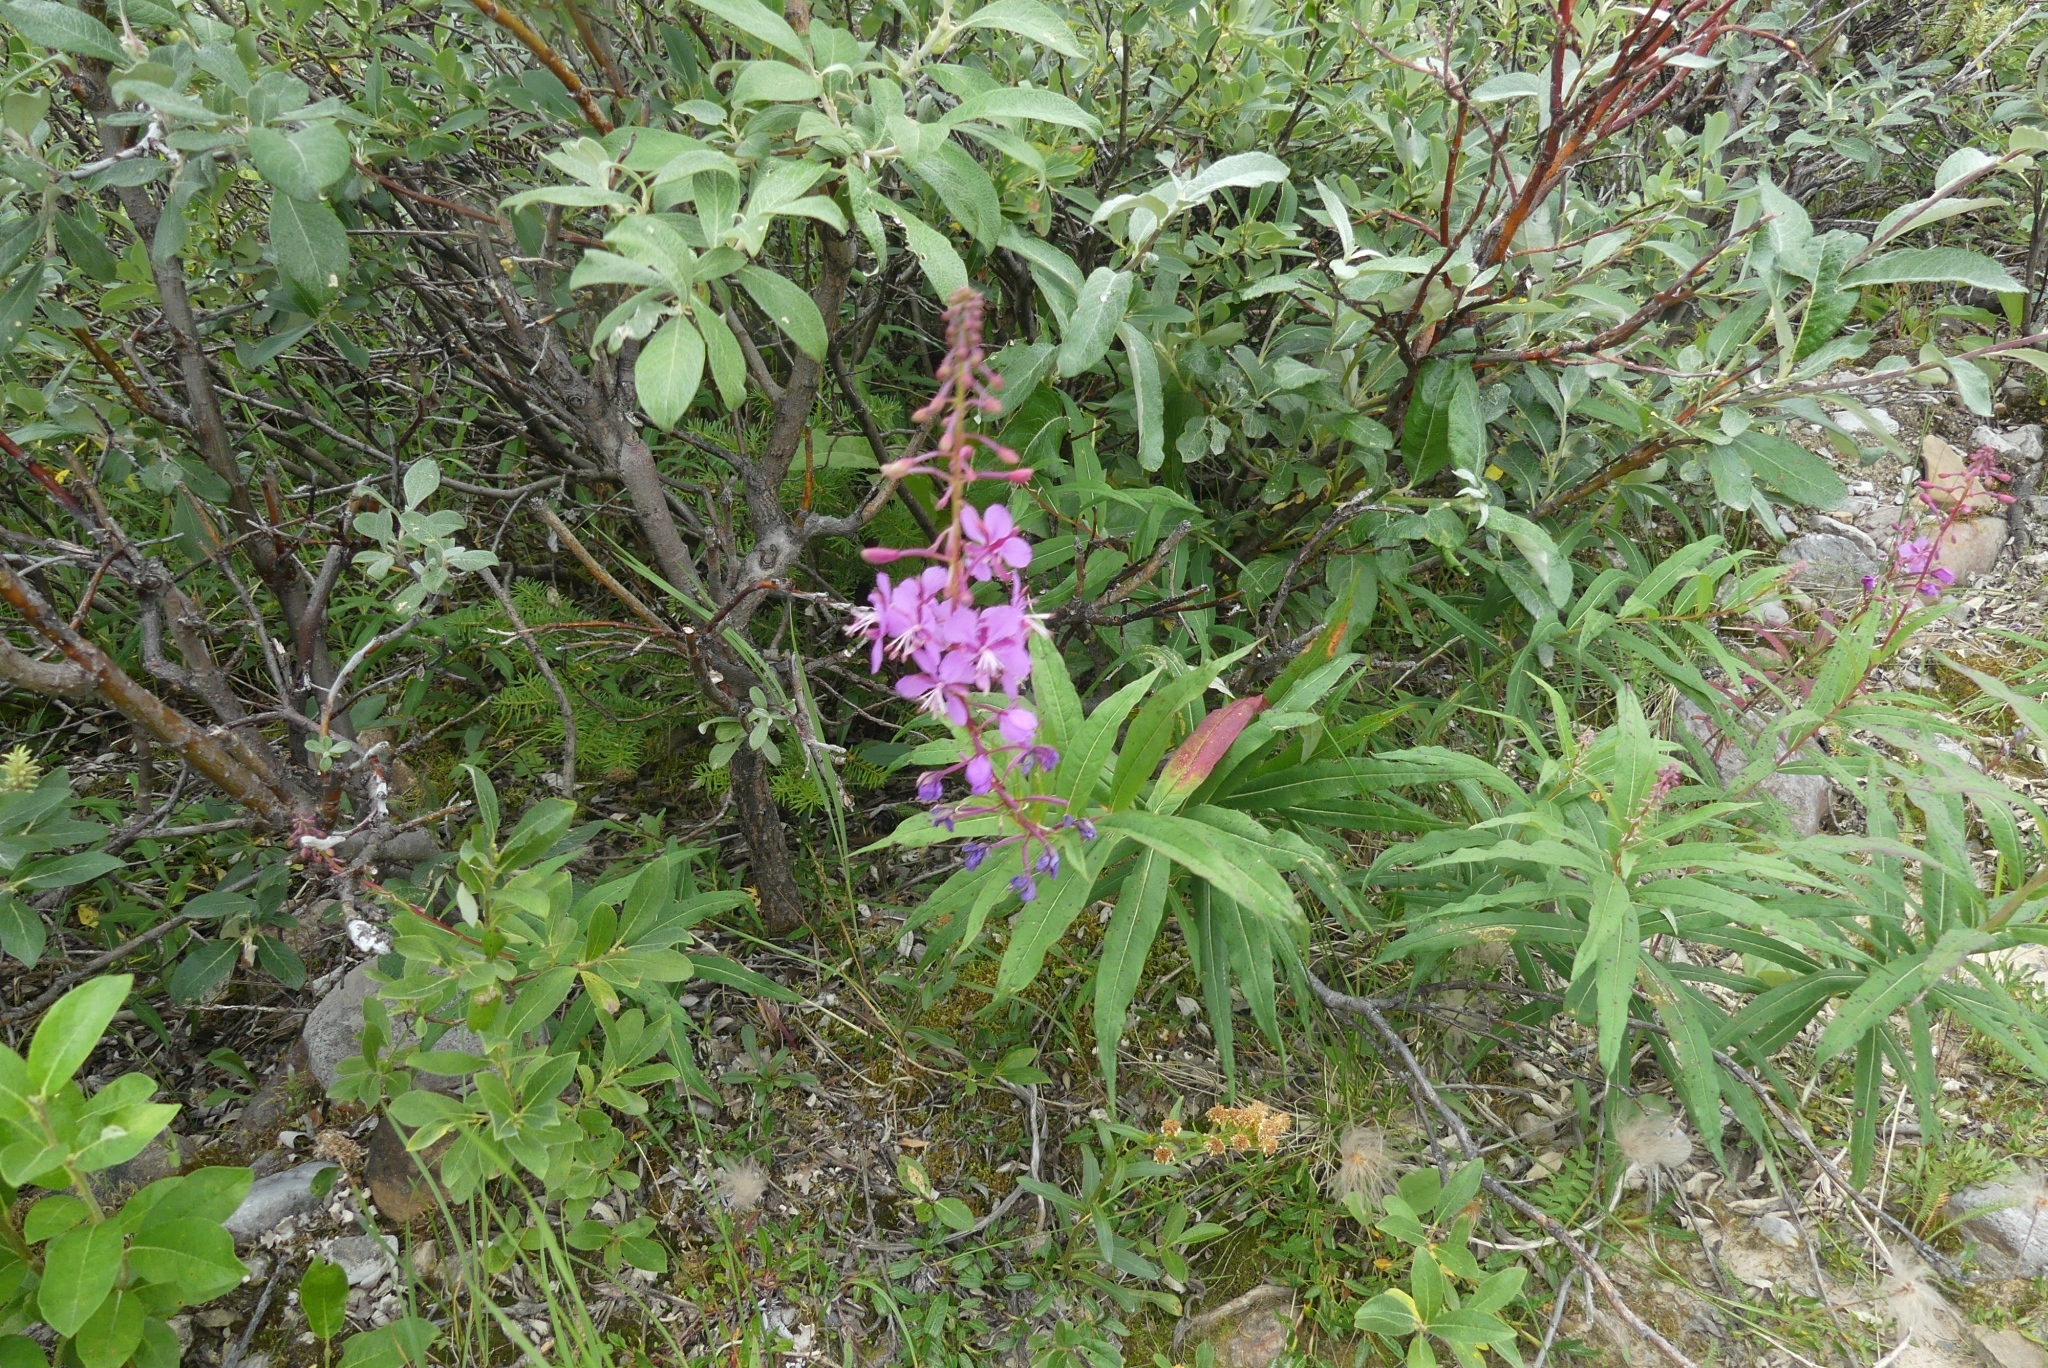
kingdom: Plantae
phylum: Tracheophyta
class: Magnoliopsida
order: Myrtales
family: Onagraceae
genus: Chamaenerion
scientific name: Chamaenerion angustifolium
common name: Fireweed
